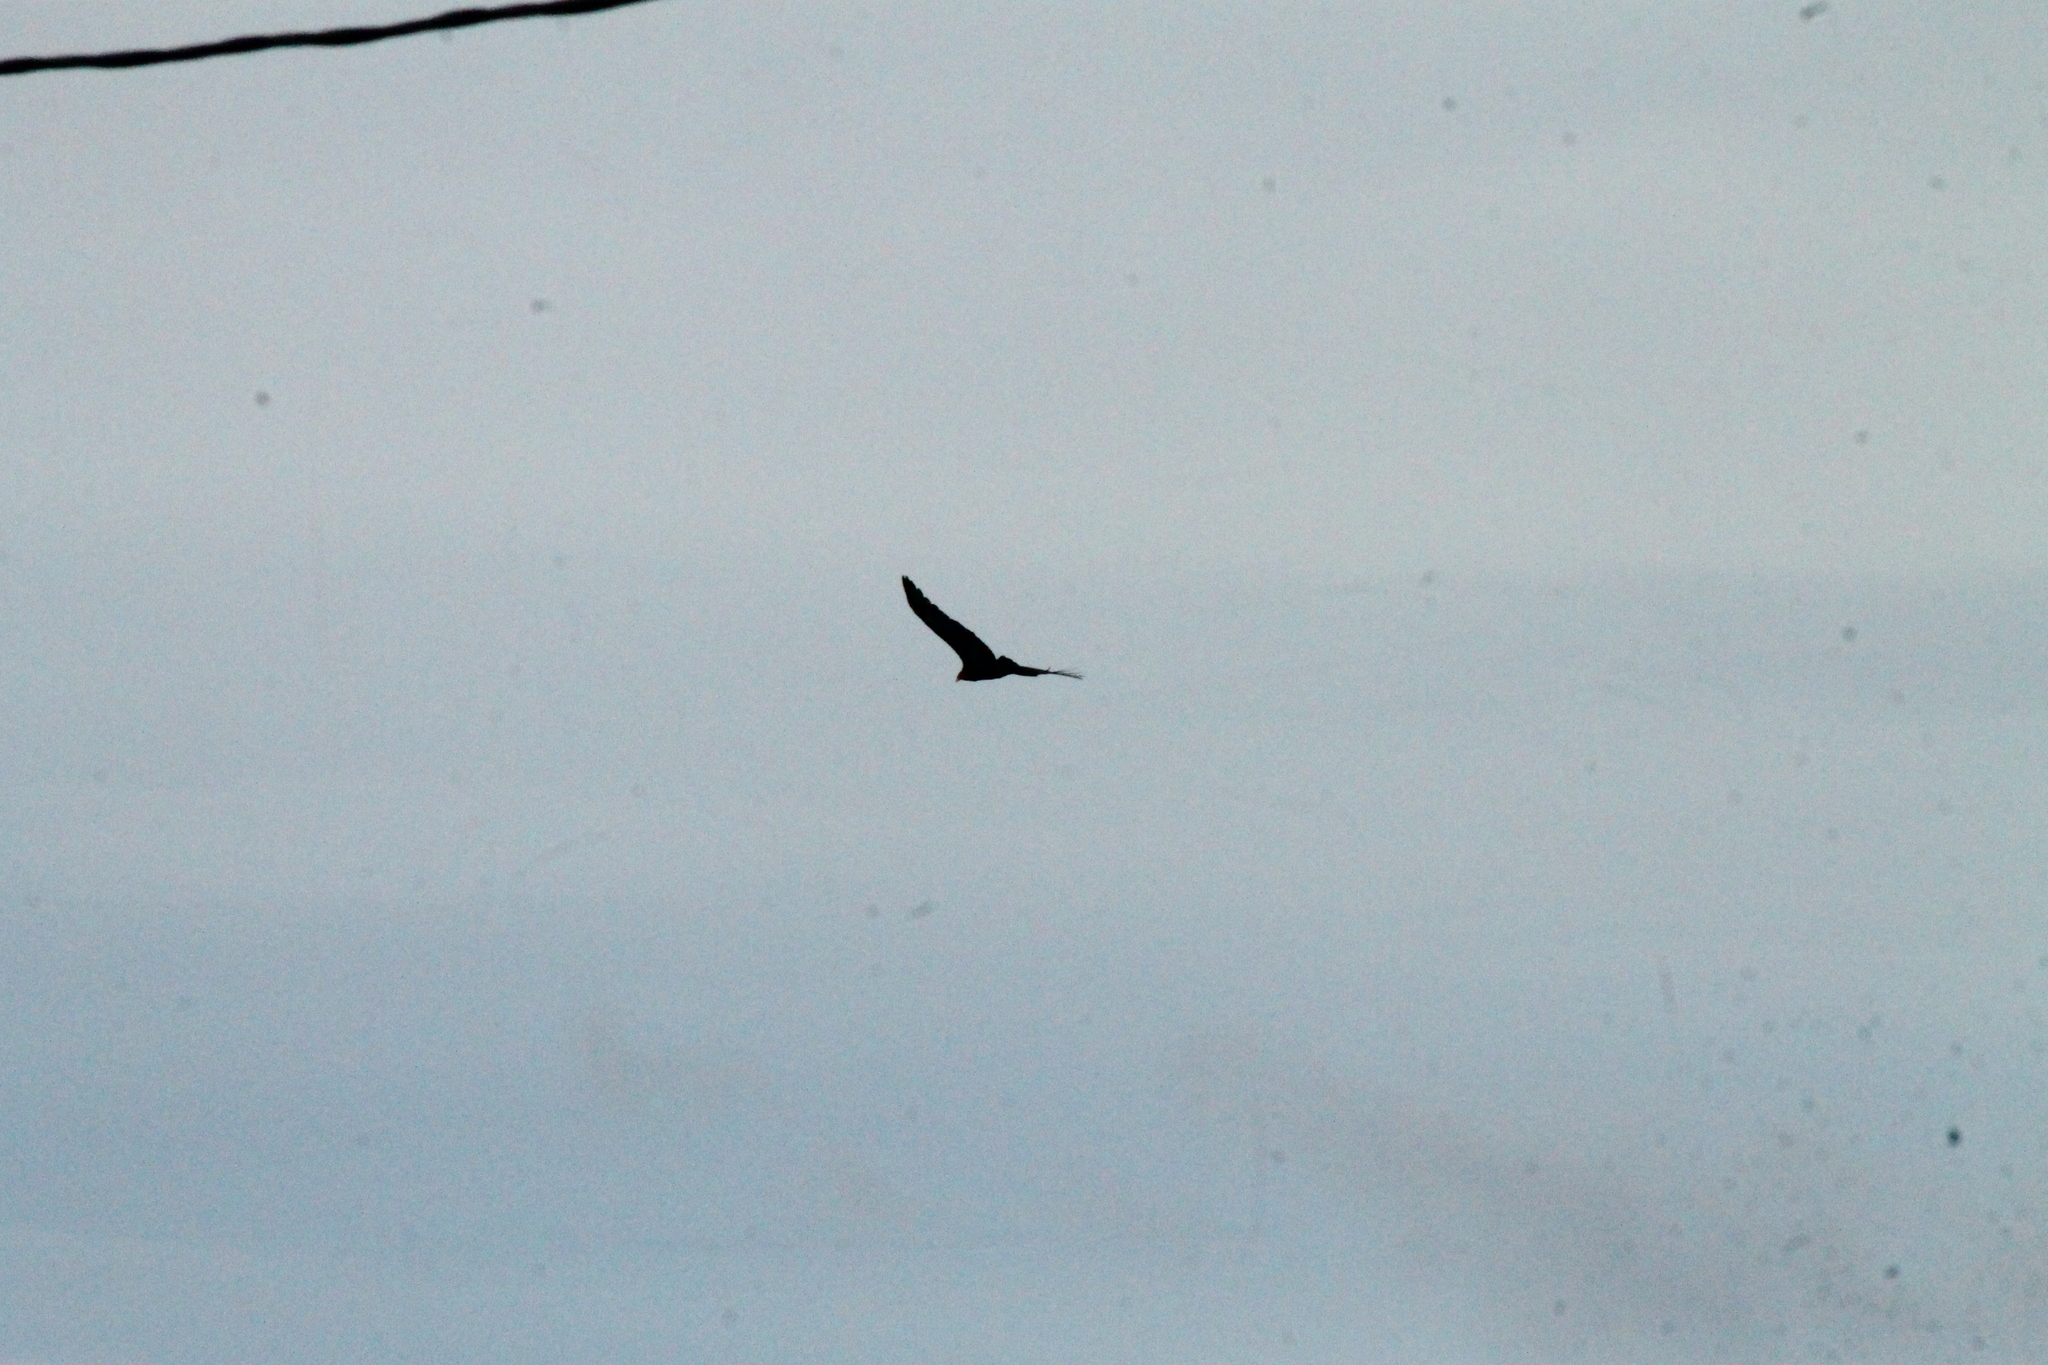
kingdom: Animalia
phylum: Chordata
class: Aves
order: Accipitriformes
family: Cathartidae
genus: Cathartes
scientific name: Cathartes aura
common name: Turkey vulture
